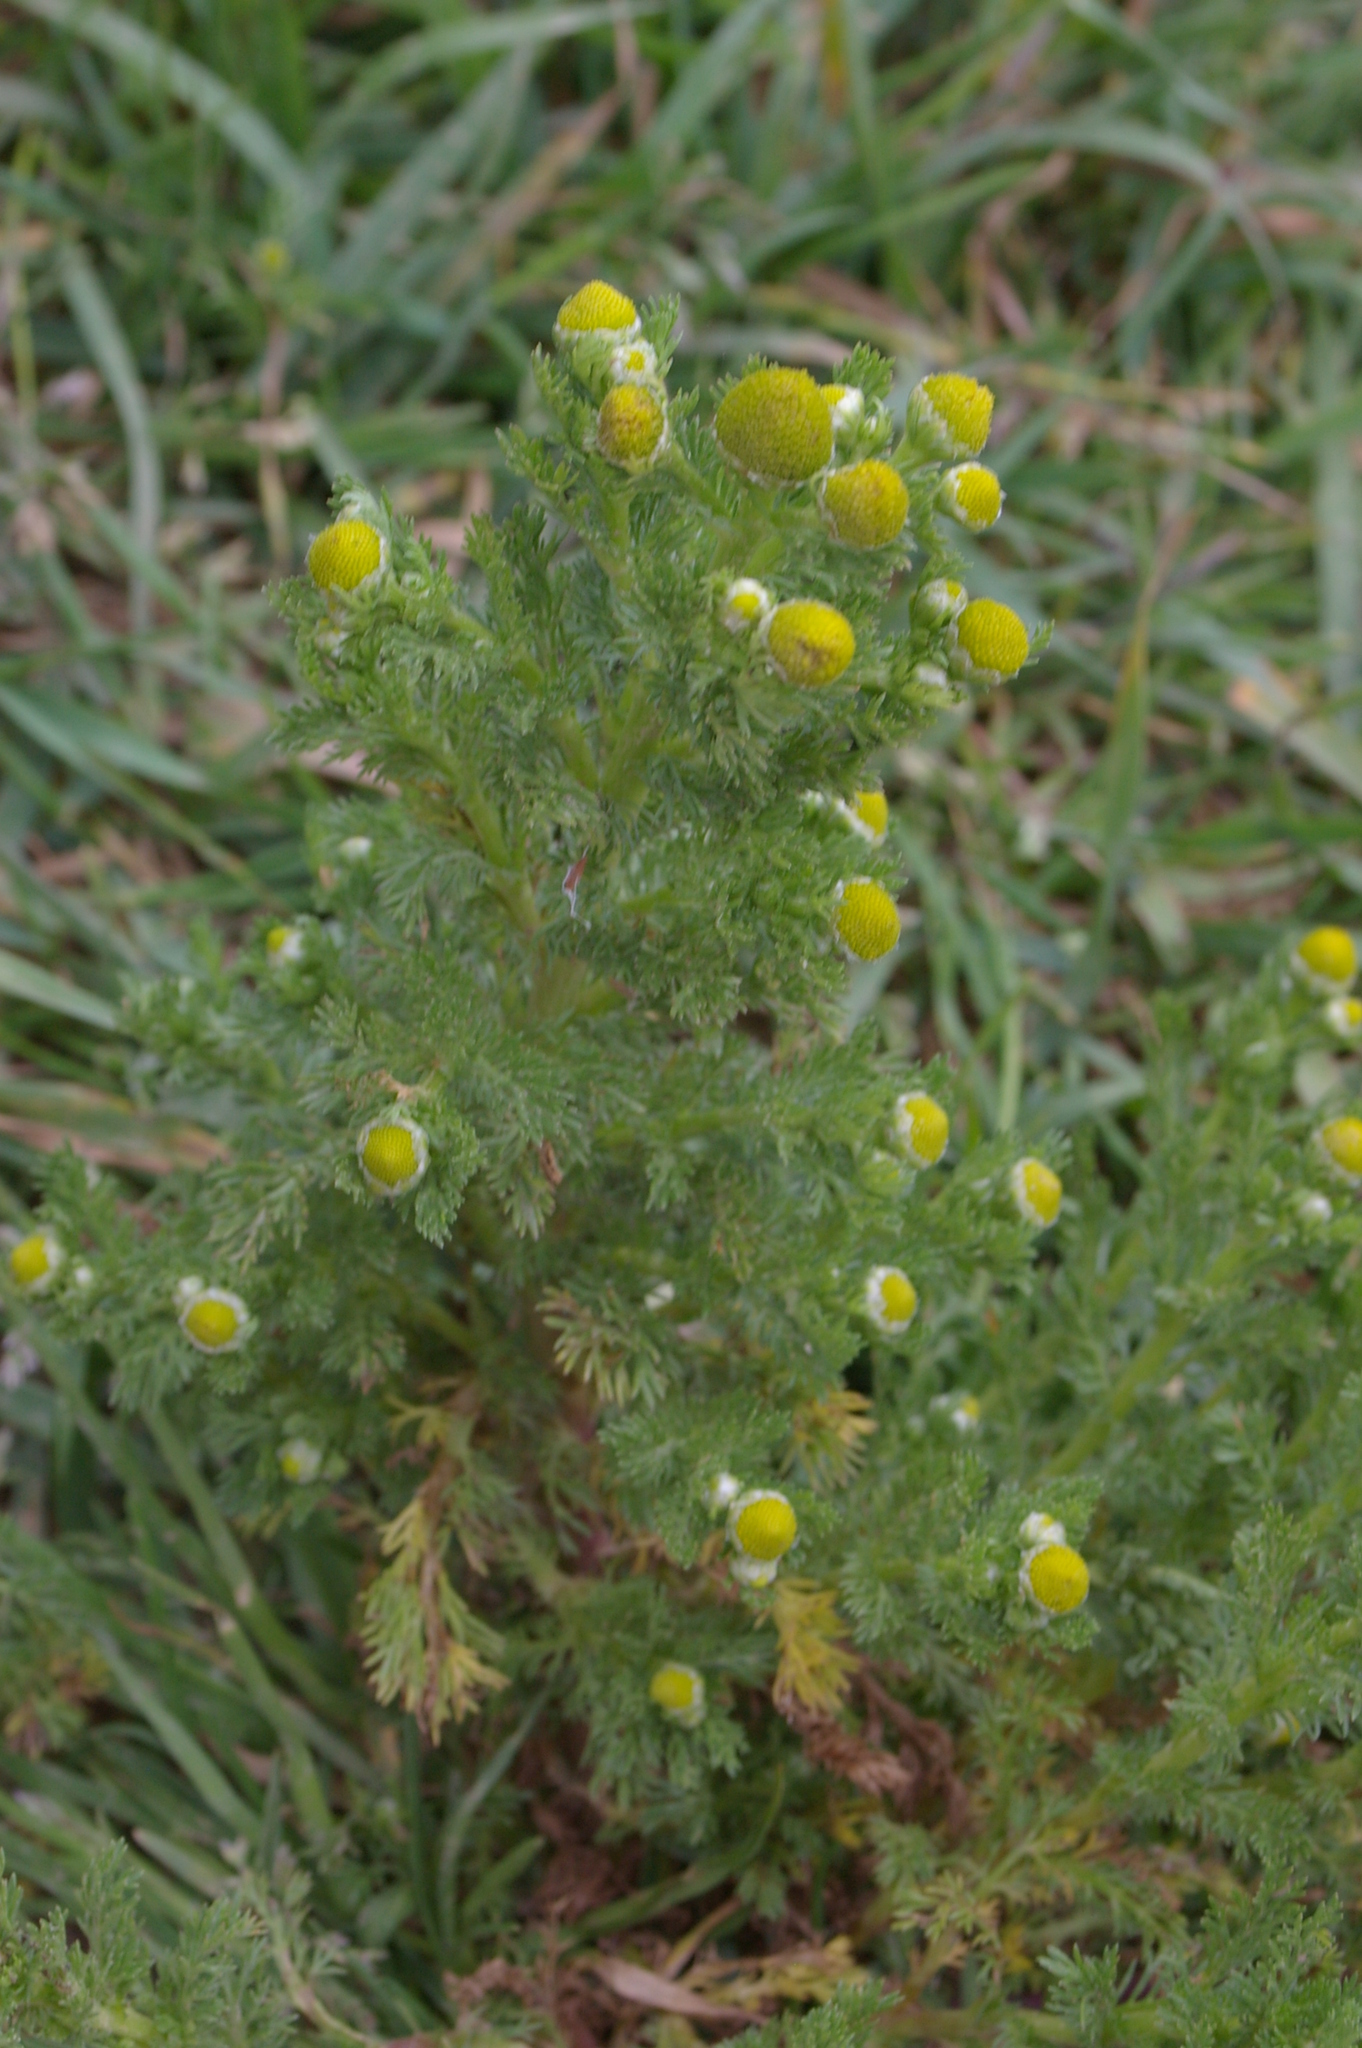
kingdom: Plantae
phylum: Tracheophyta
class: Magnoliopsida
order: Asterales
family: Asteraceae
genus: Matricaria
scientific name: Matricaria discoidea
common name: Disc mayweed
